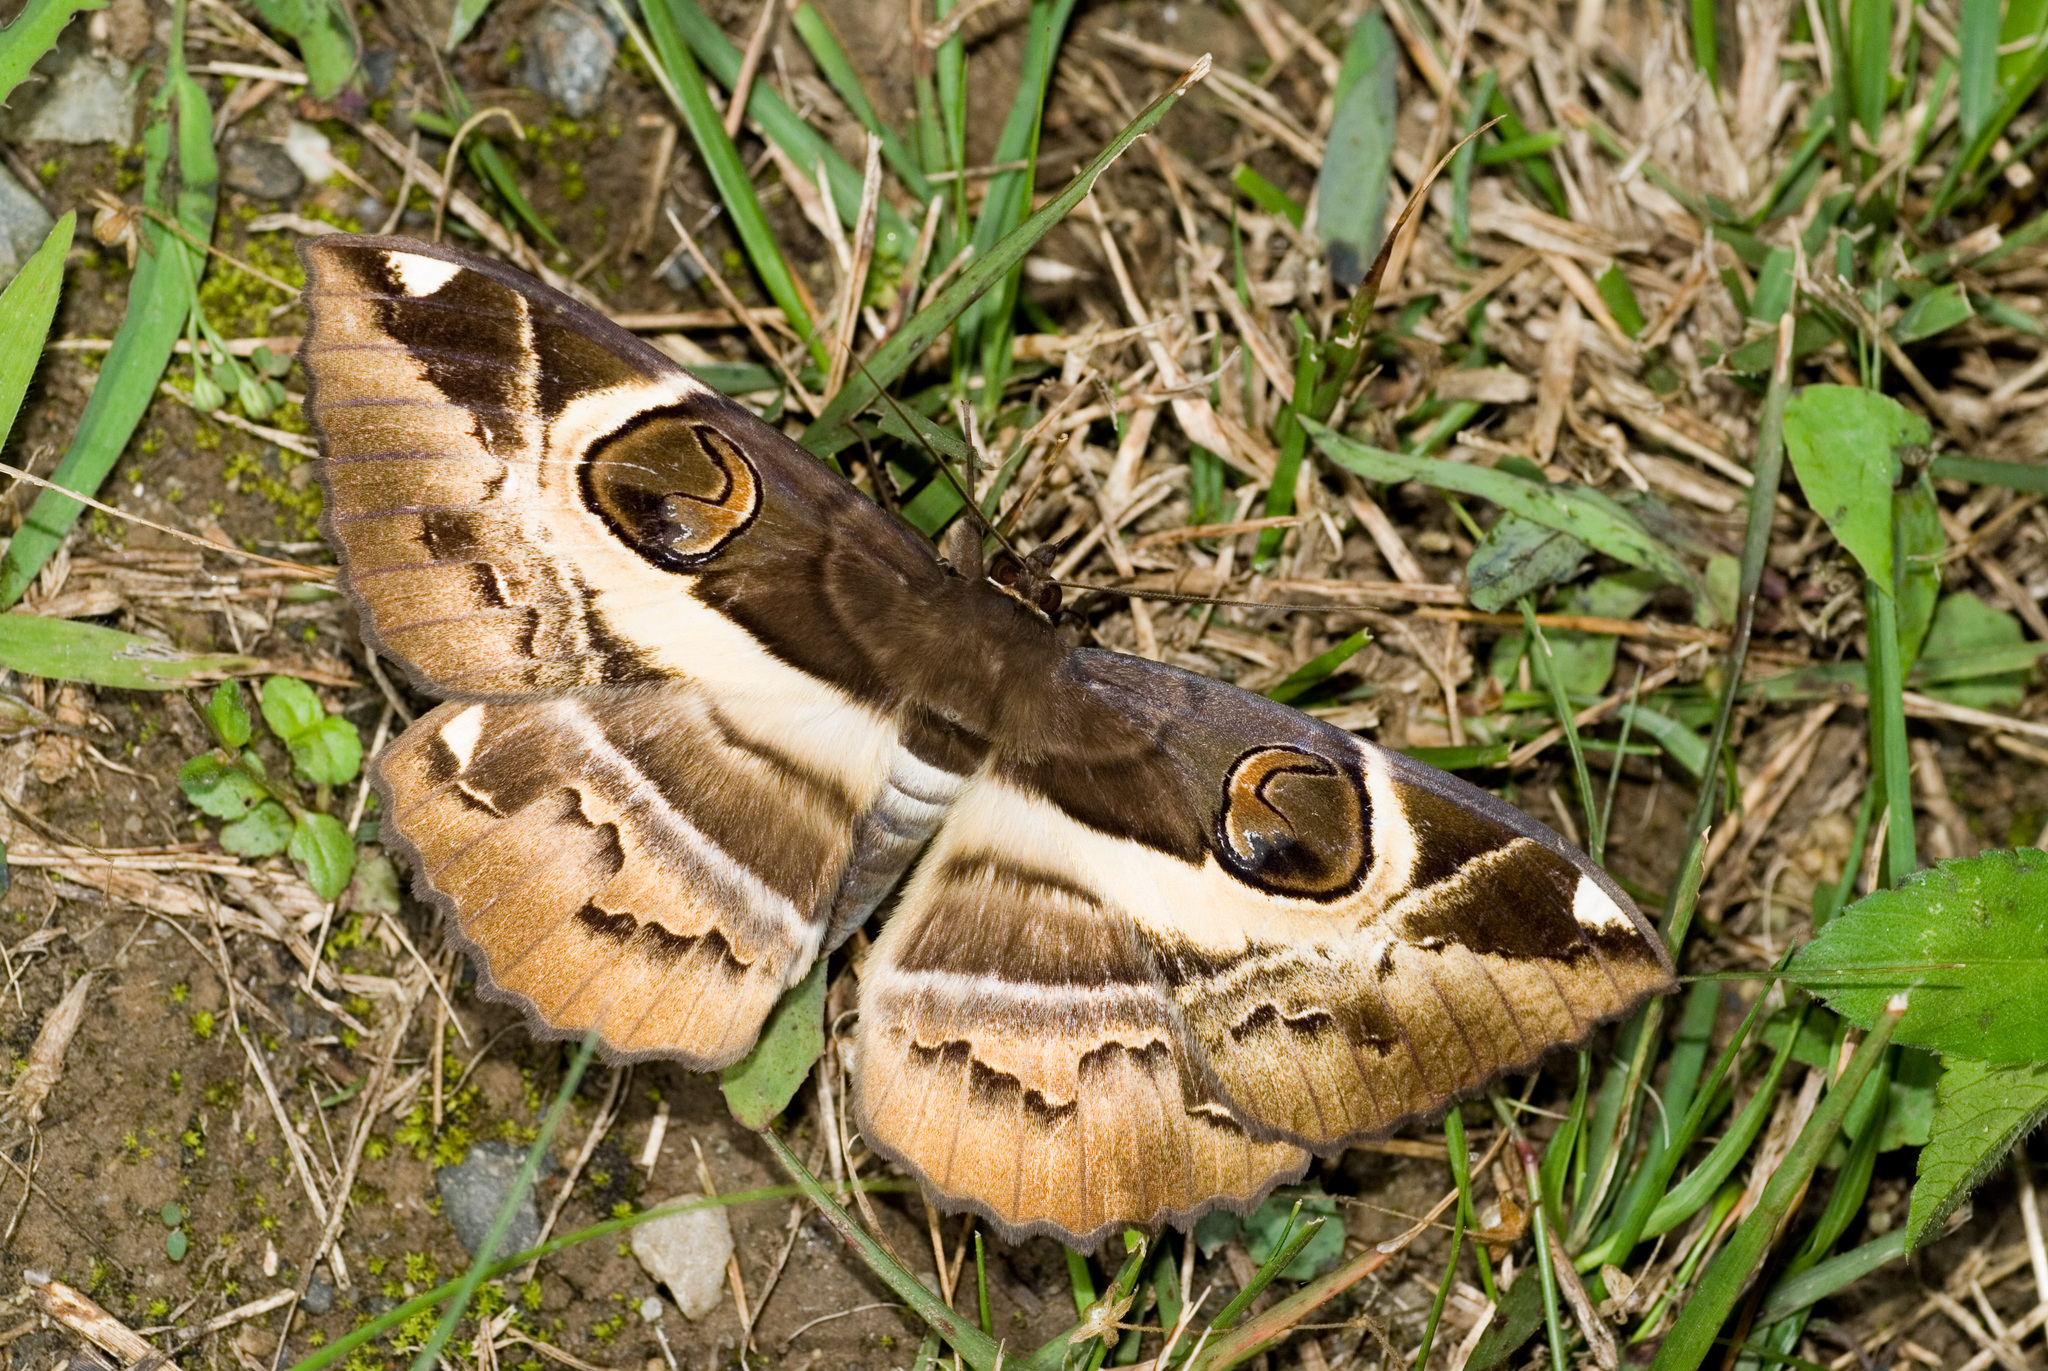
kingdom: Animalia
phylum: Arthropoda
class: Insecta
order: Lepidoptera
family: Erebidae
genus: Erebus
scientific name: Erebus ephesperis
